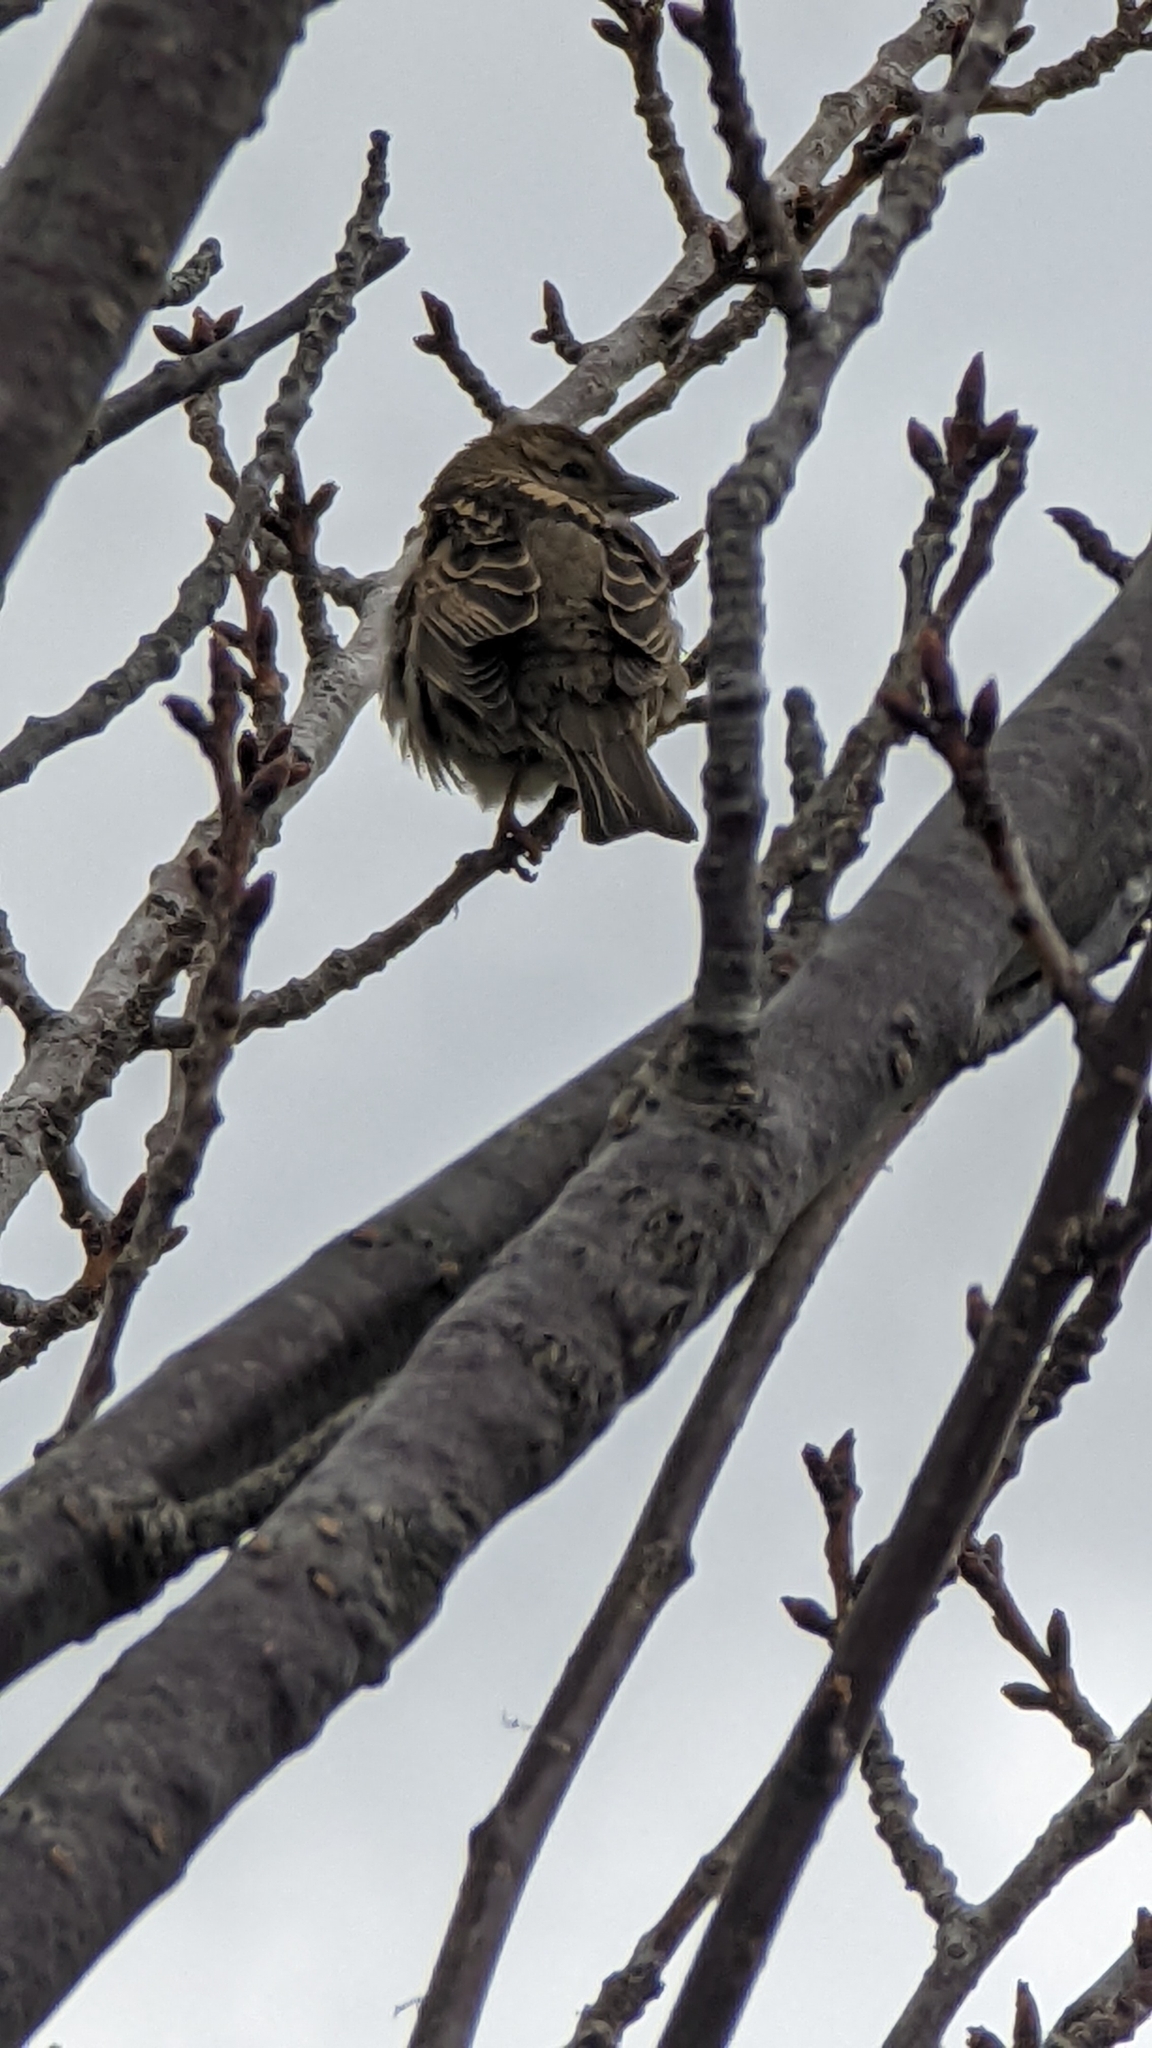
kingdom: Animalia
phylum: Chordata
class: Aves
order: Passeriformes
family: Passeridae
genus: Passer
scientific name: Passer domesticus
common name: House sparrow
